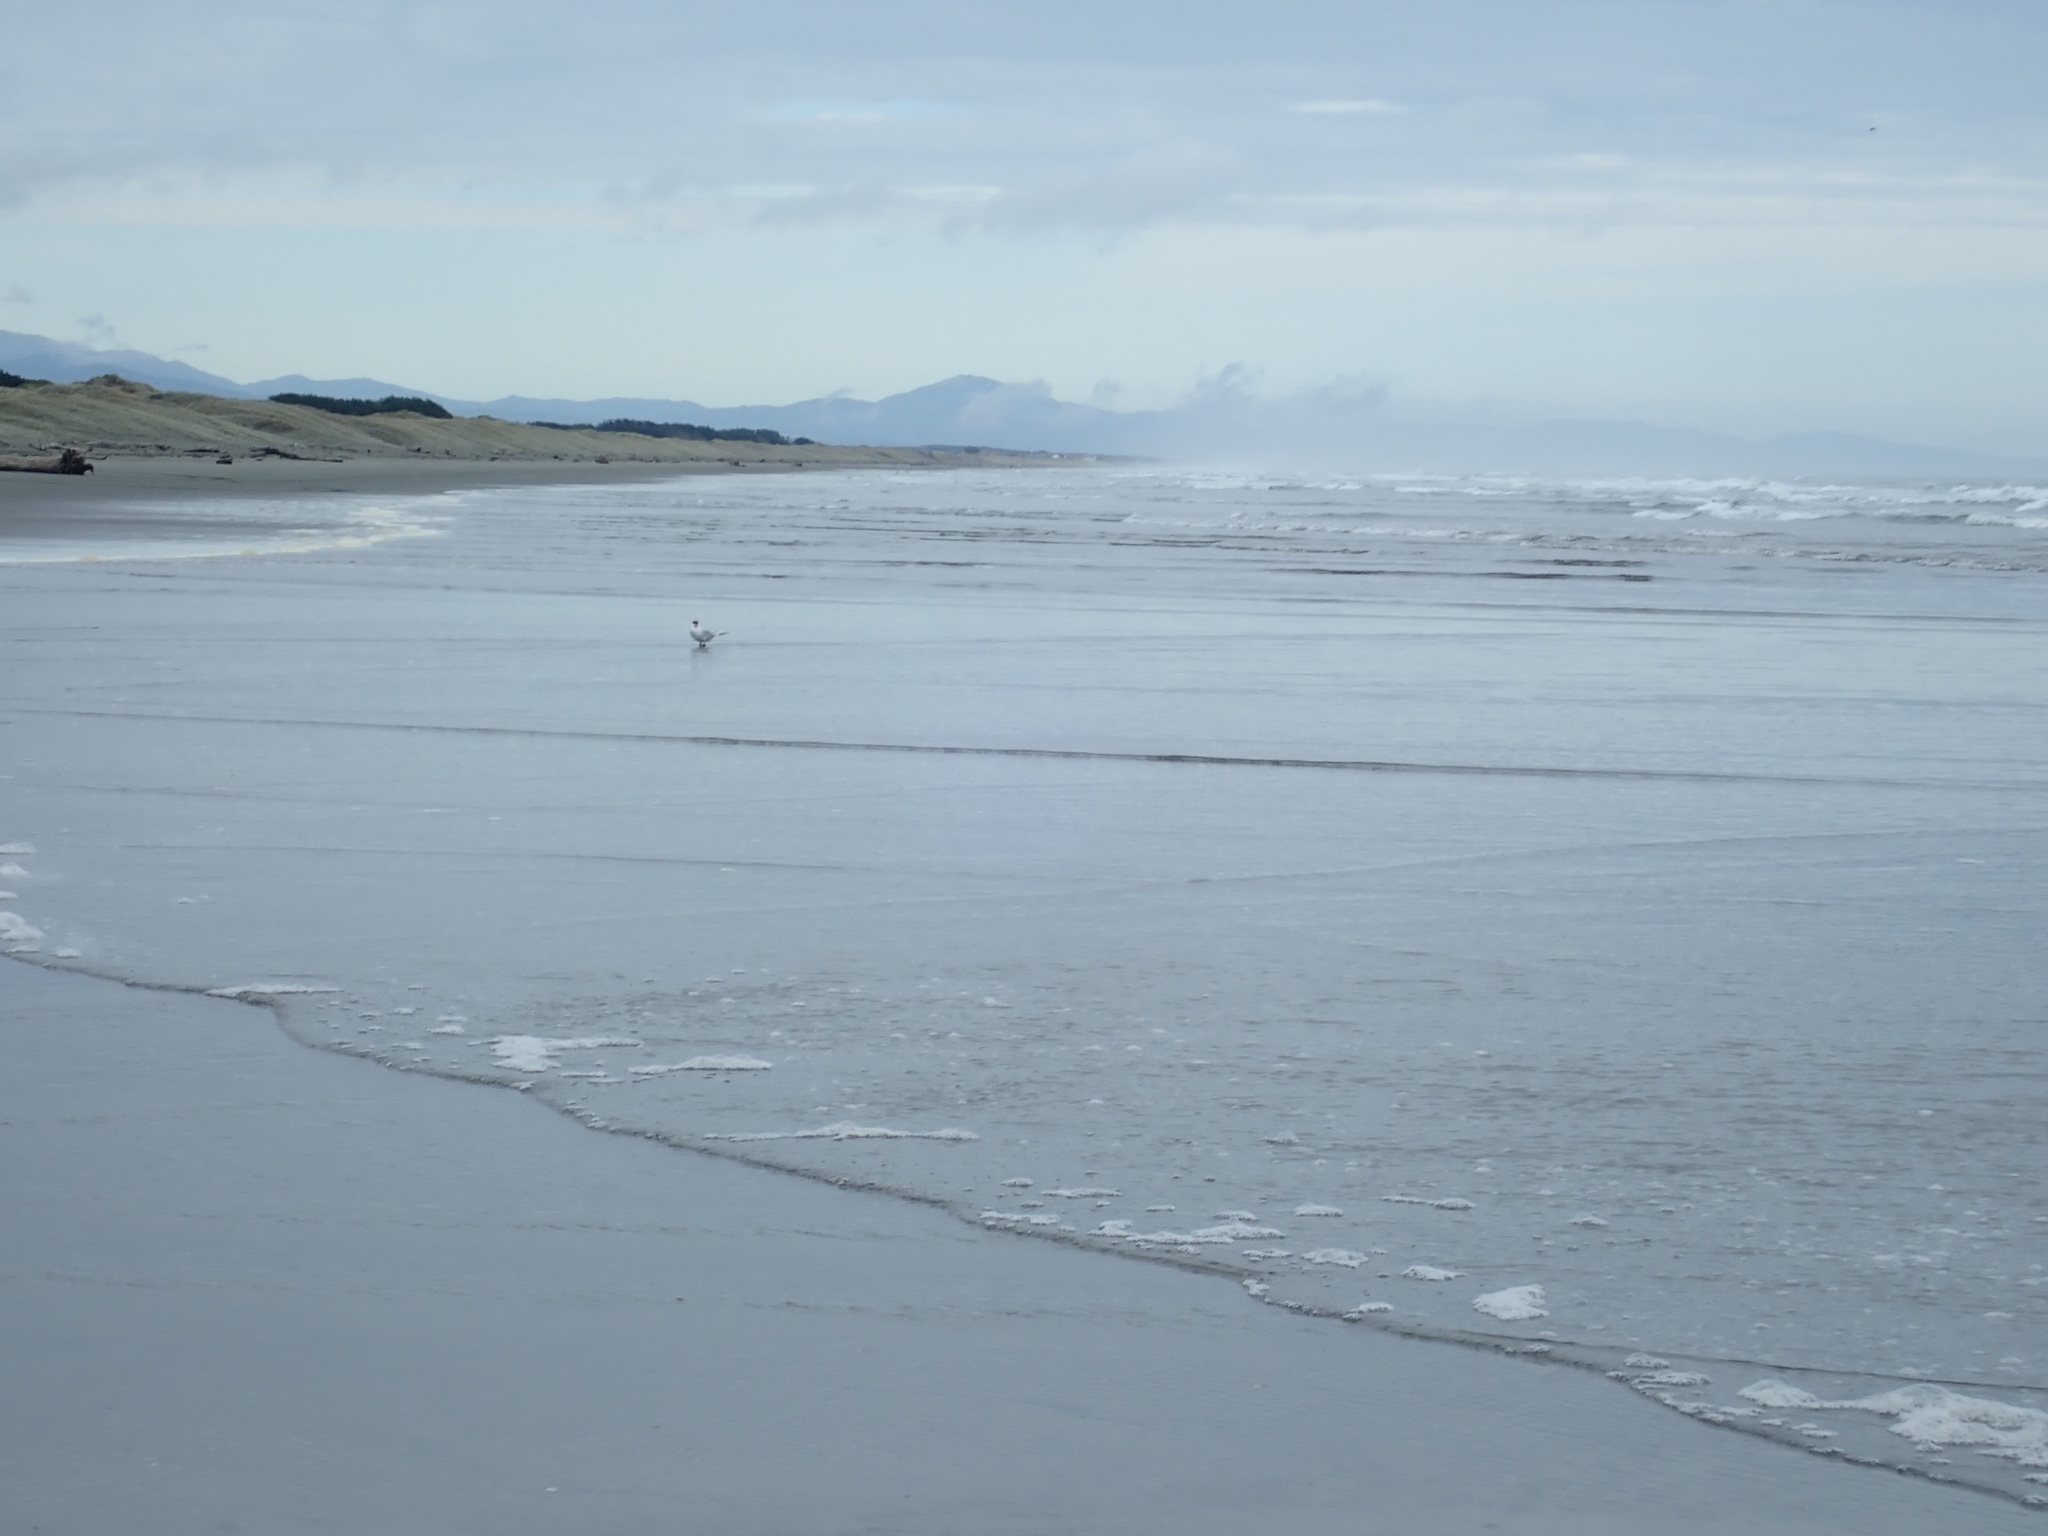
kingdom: Animalia
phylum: Chordata
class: Aves
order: Charadriiformes
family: Laridae
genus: Hydroprogne
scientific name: Hydroprogne caspia
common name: Caspian tern
